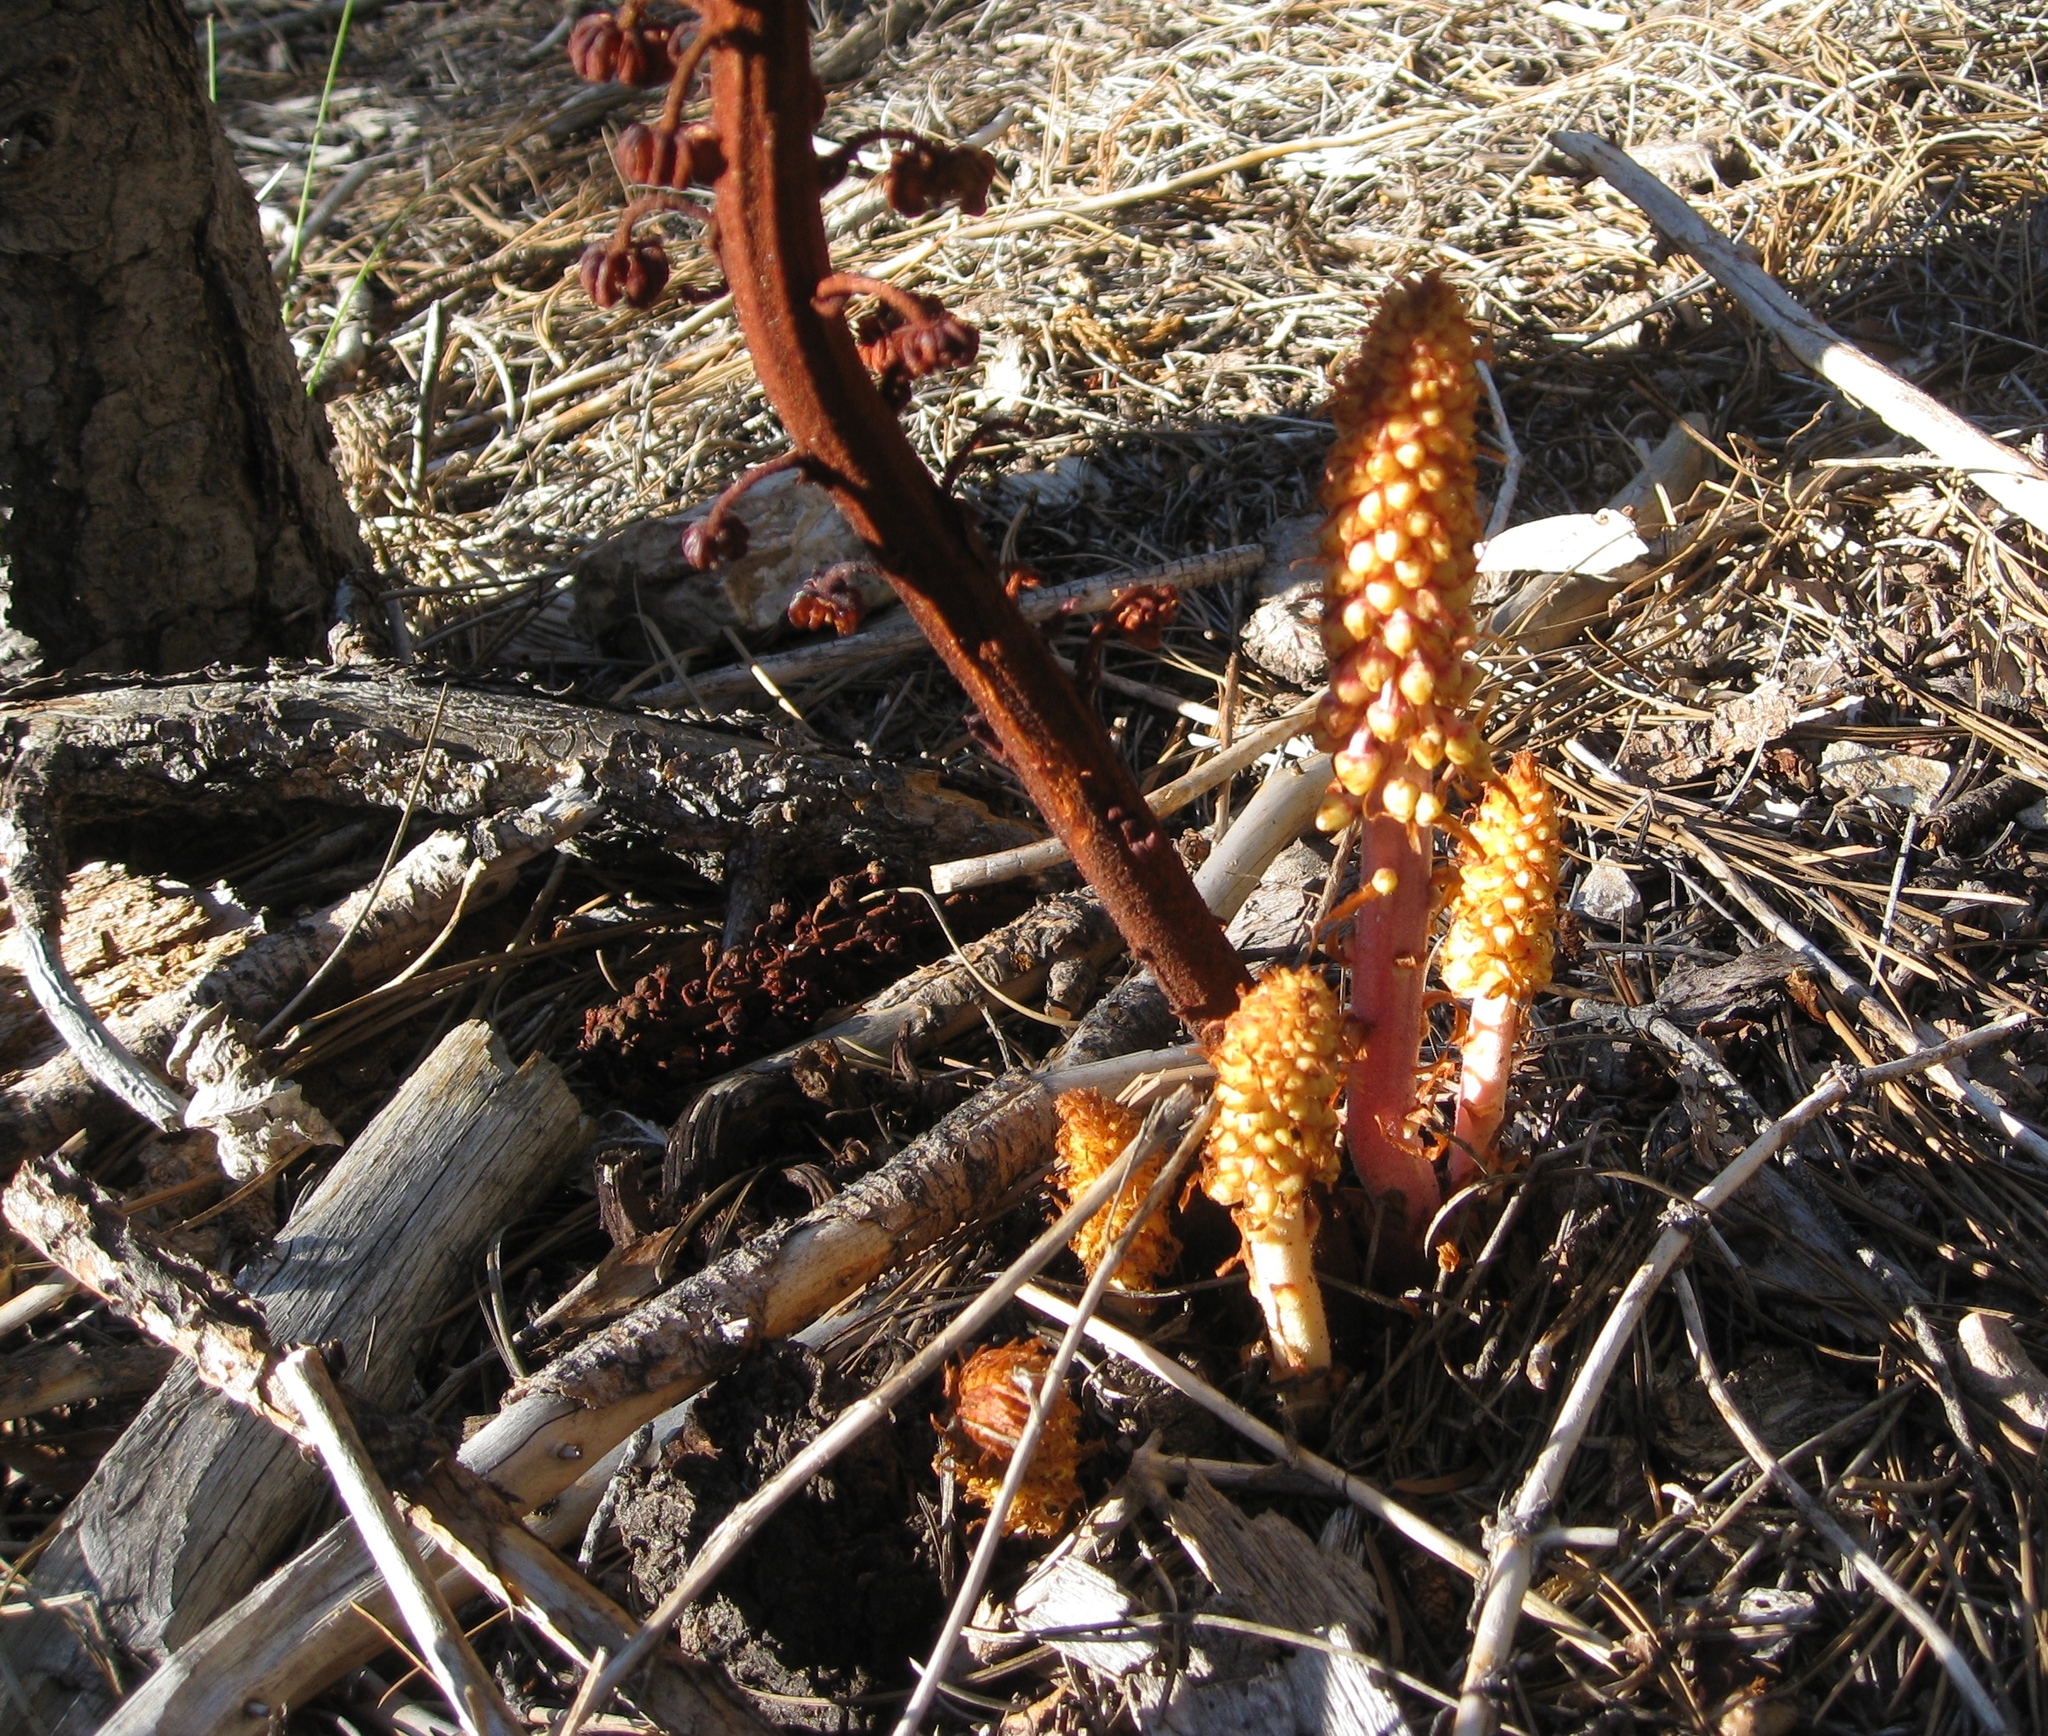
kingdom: Plantae
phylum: Tracheophyta
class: Magnoliopsida
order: Ericales
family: Ericaceae
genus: Pterospora
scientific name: Pterospora andromedea
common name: Giant bird's-nest
